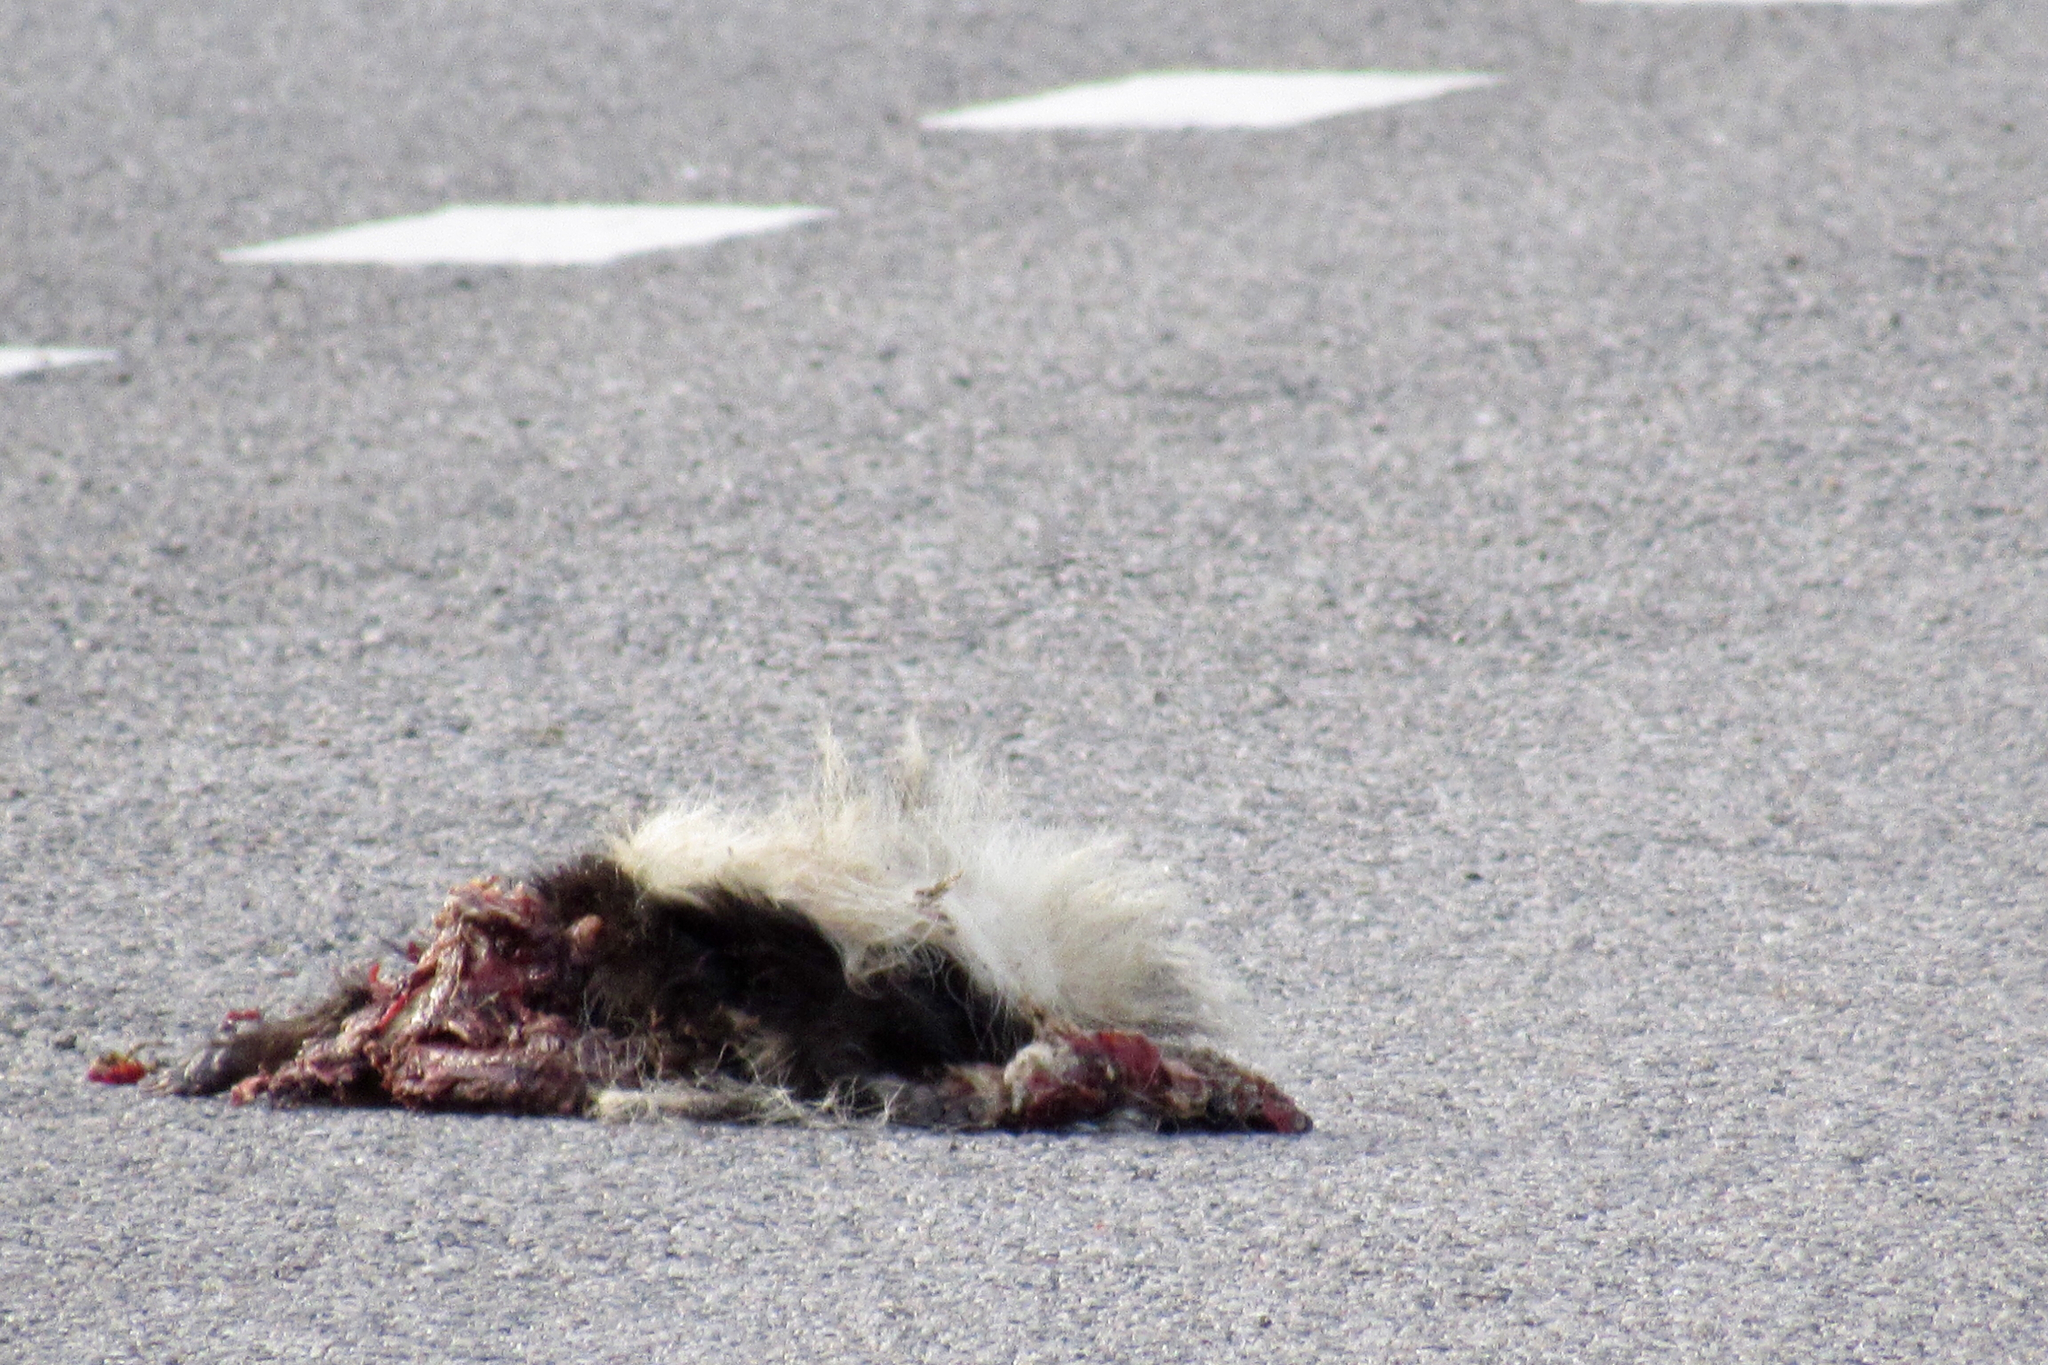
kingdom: Animalia
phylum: Chordata
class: Mammalia
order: Carnivora
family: Mephitidae
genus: Mephitis
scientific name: Mephitis macroura
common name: Hooded skunk
